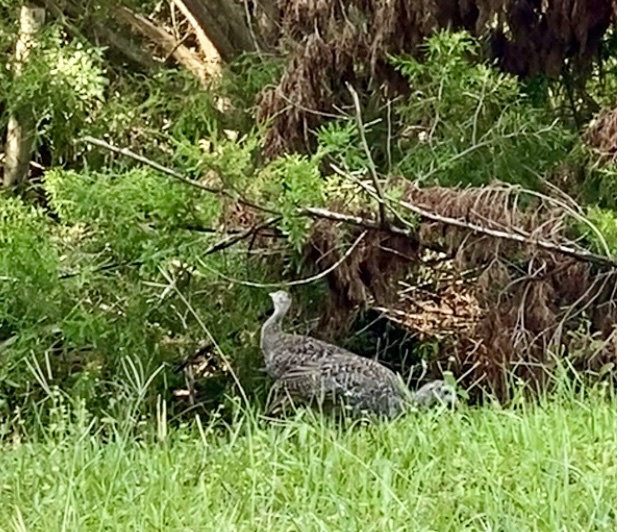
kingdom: Animalia
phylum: Chordata
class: Aves
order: Galliformes
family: Phasianidae
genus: Meleagris
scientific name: Meleagris gallopavo
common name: Wild turkey
